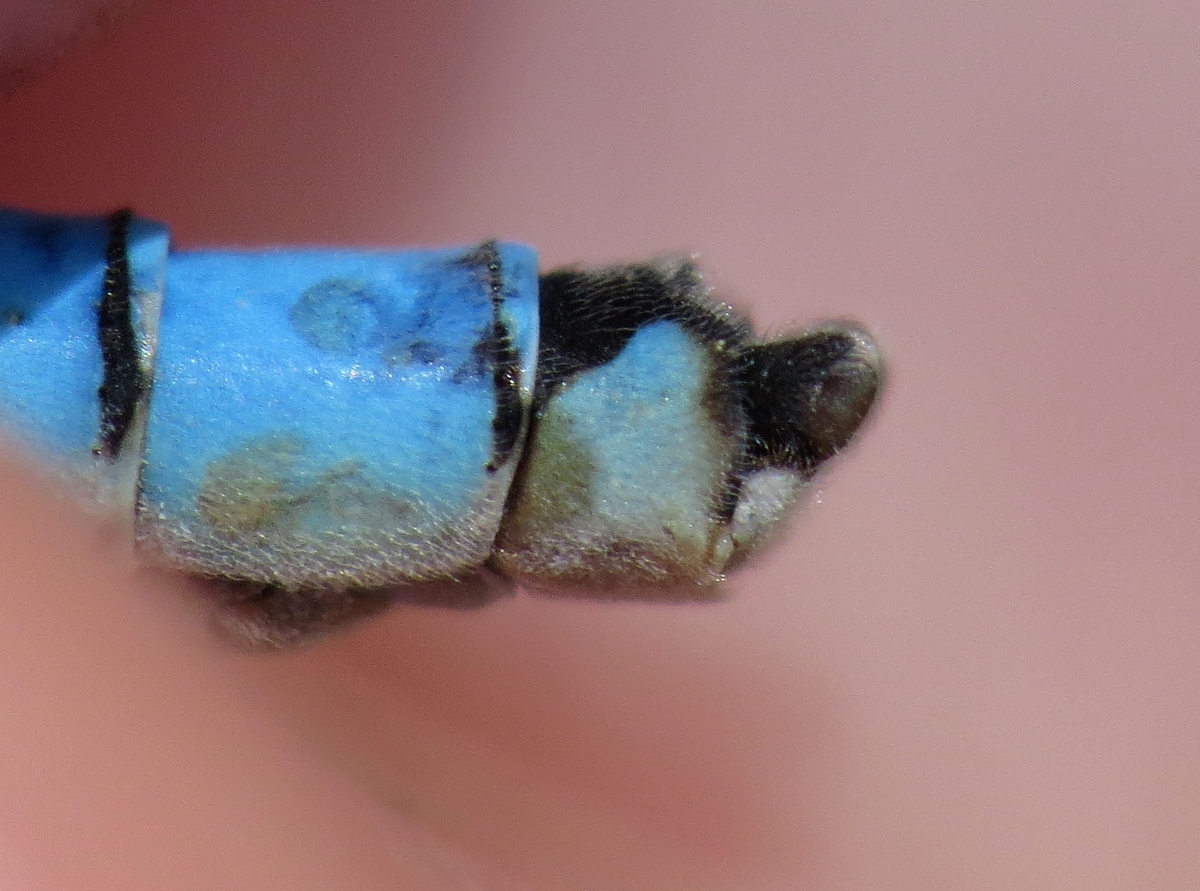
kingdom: Animalia
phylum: Arthropoda
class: Insecta
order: Odonata
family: Coenagrionidae
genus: Enallagma
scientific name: Enallagma civile
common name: Damselfly
